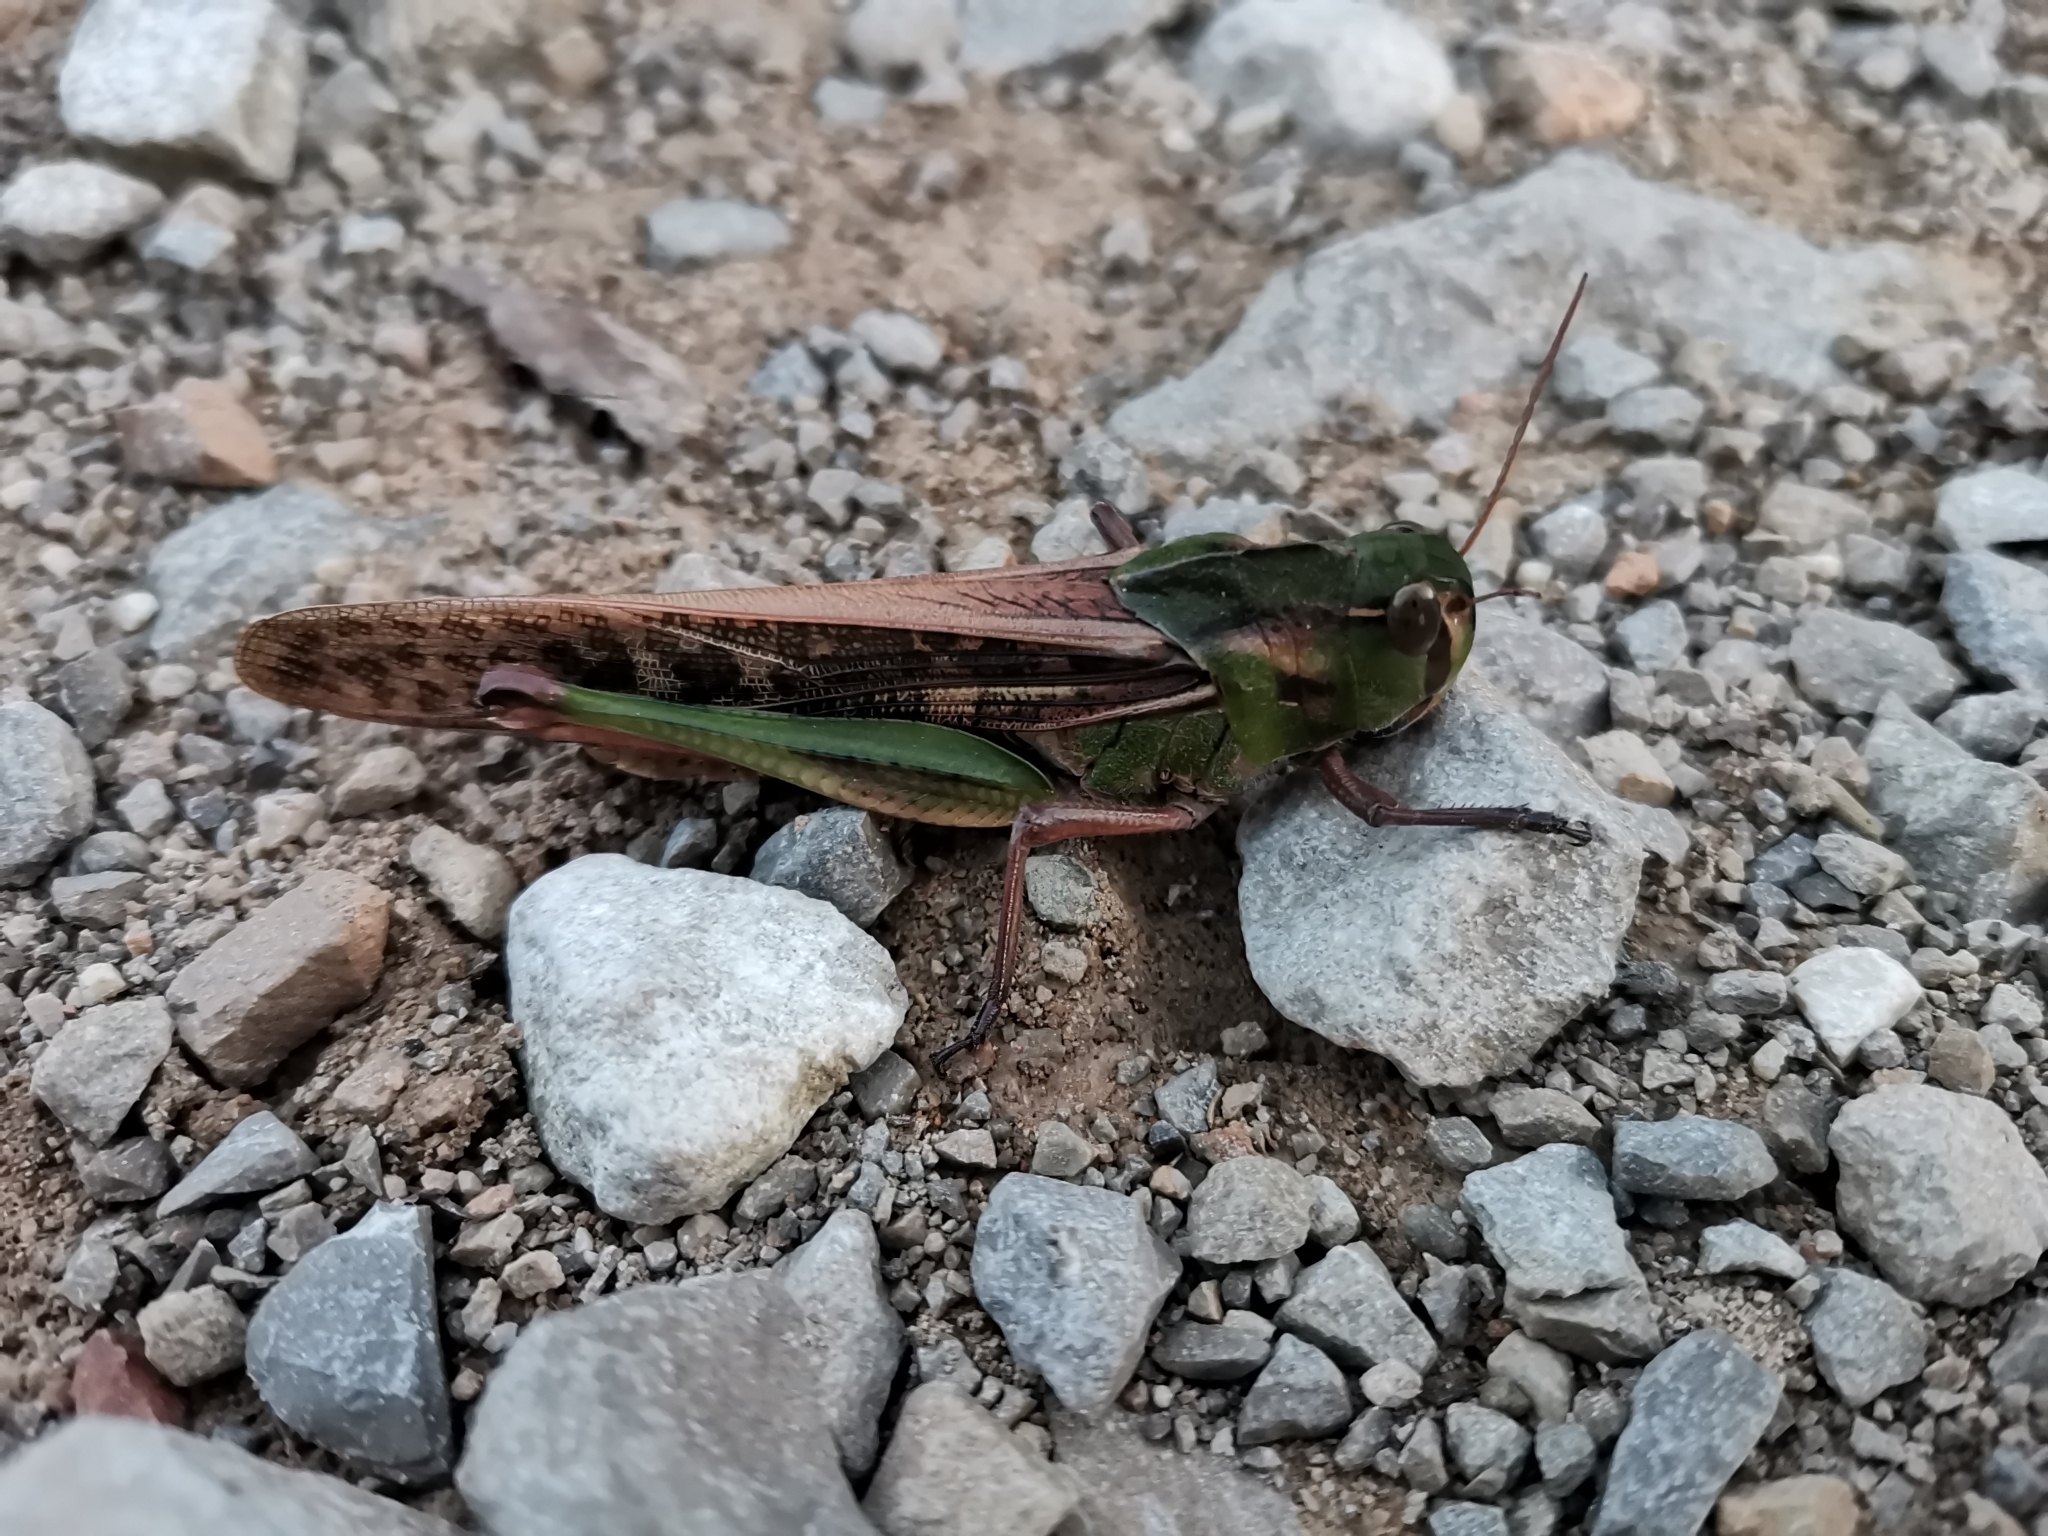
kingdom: Animalia
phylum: Arthropoda
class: Insecta
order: Orthoptera
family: Acrididae
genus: Locusta
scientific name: Locusta migratoria
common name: Migratory locust
